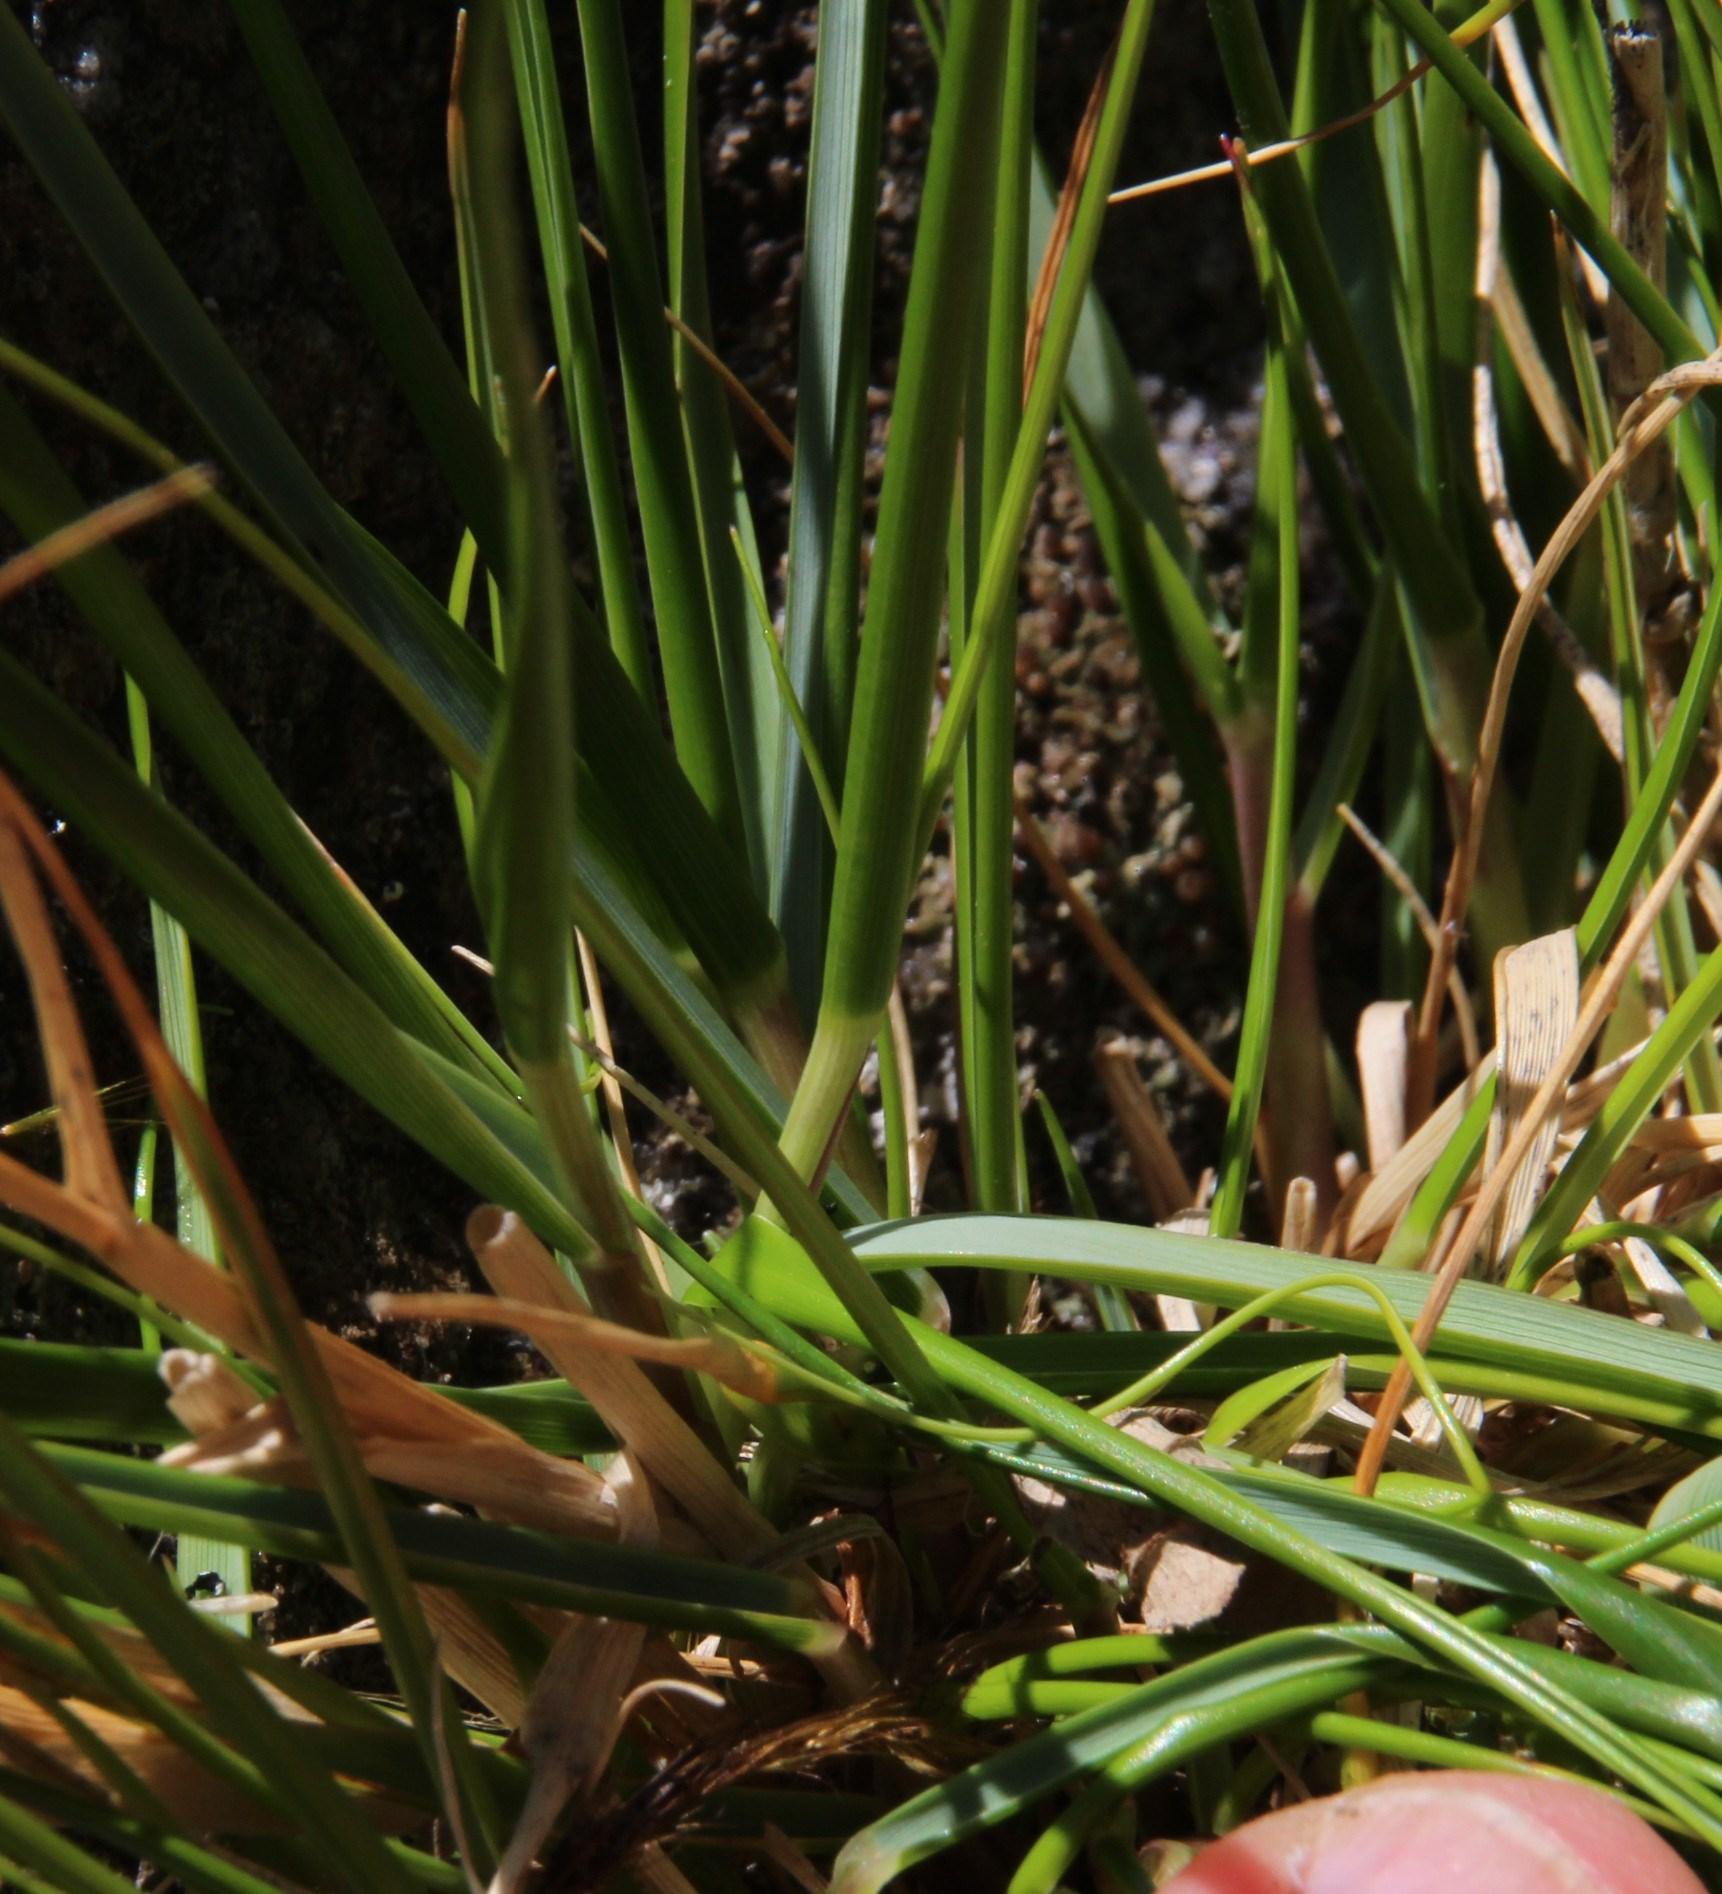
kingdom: Plantae
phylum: Tracheophyta
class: Liliopsida
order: Poales
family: Poaceae
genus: Pentameris
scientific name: Pentameris capensis
